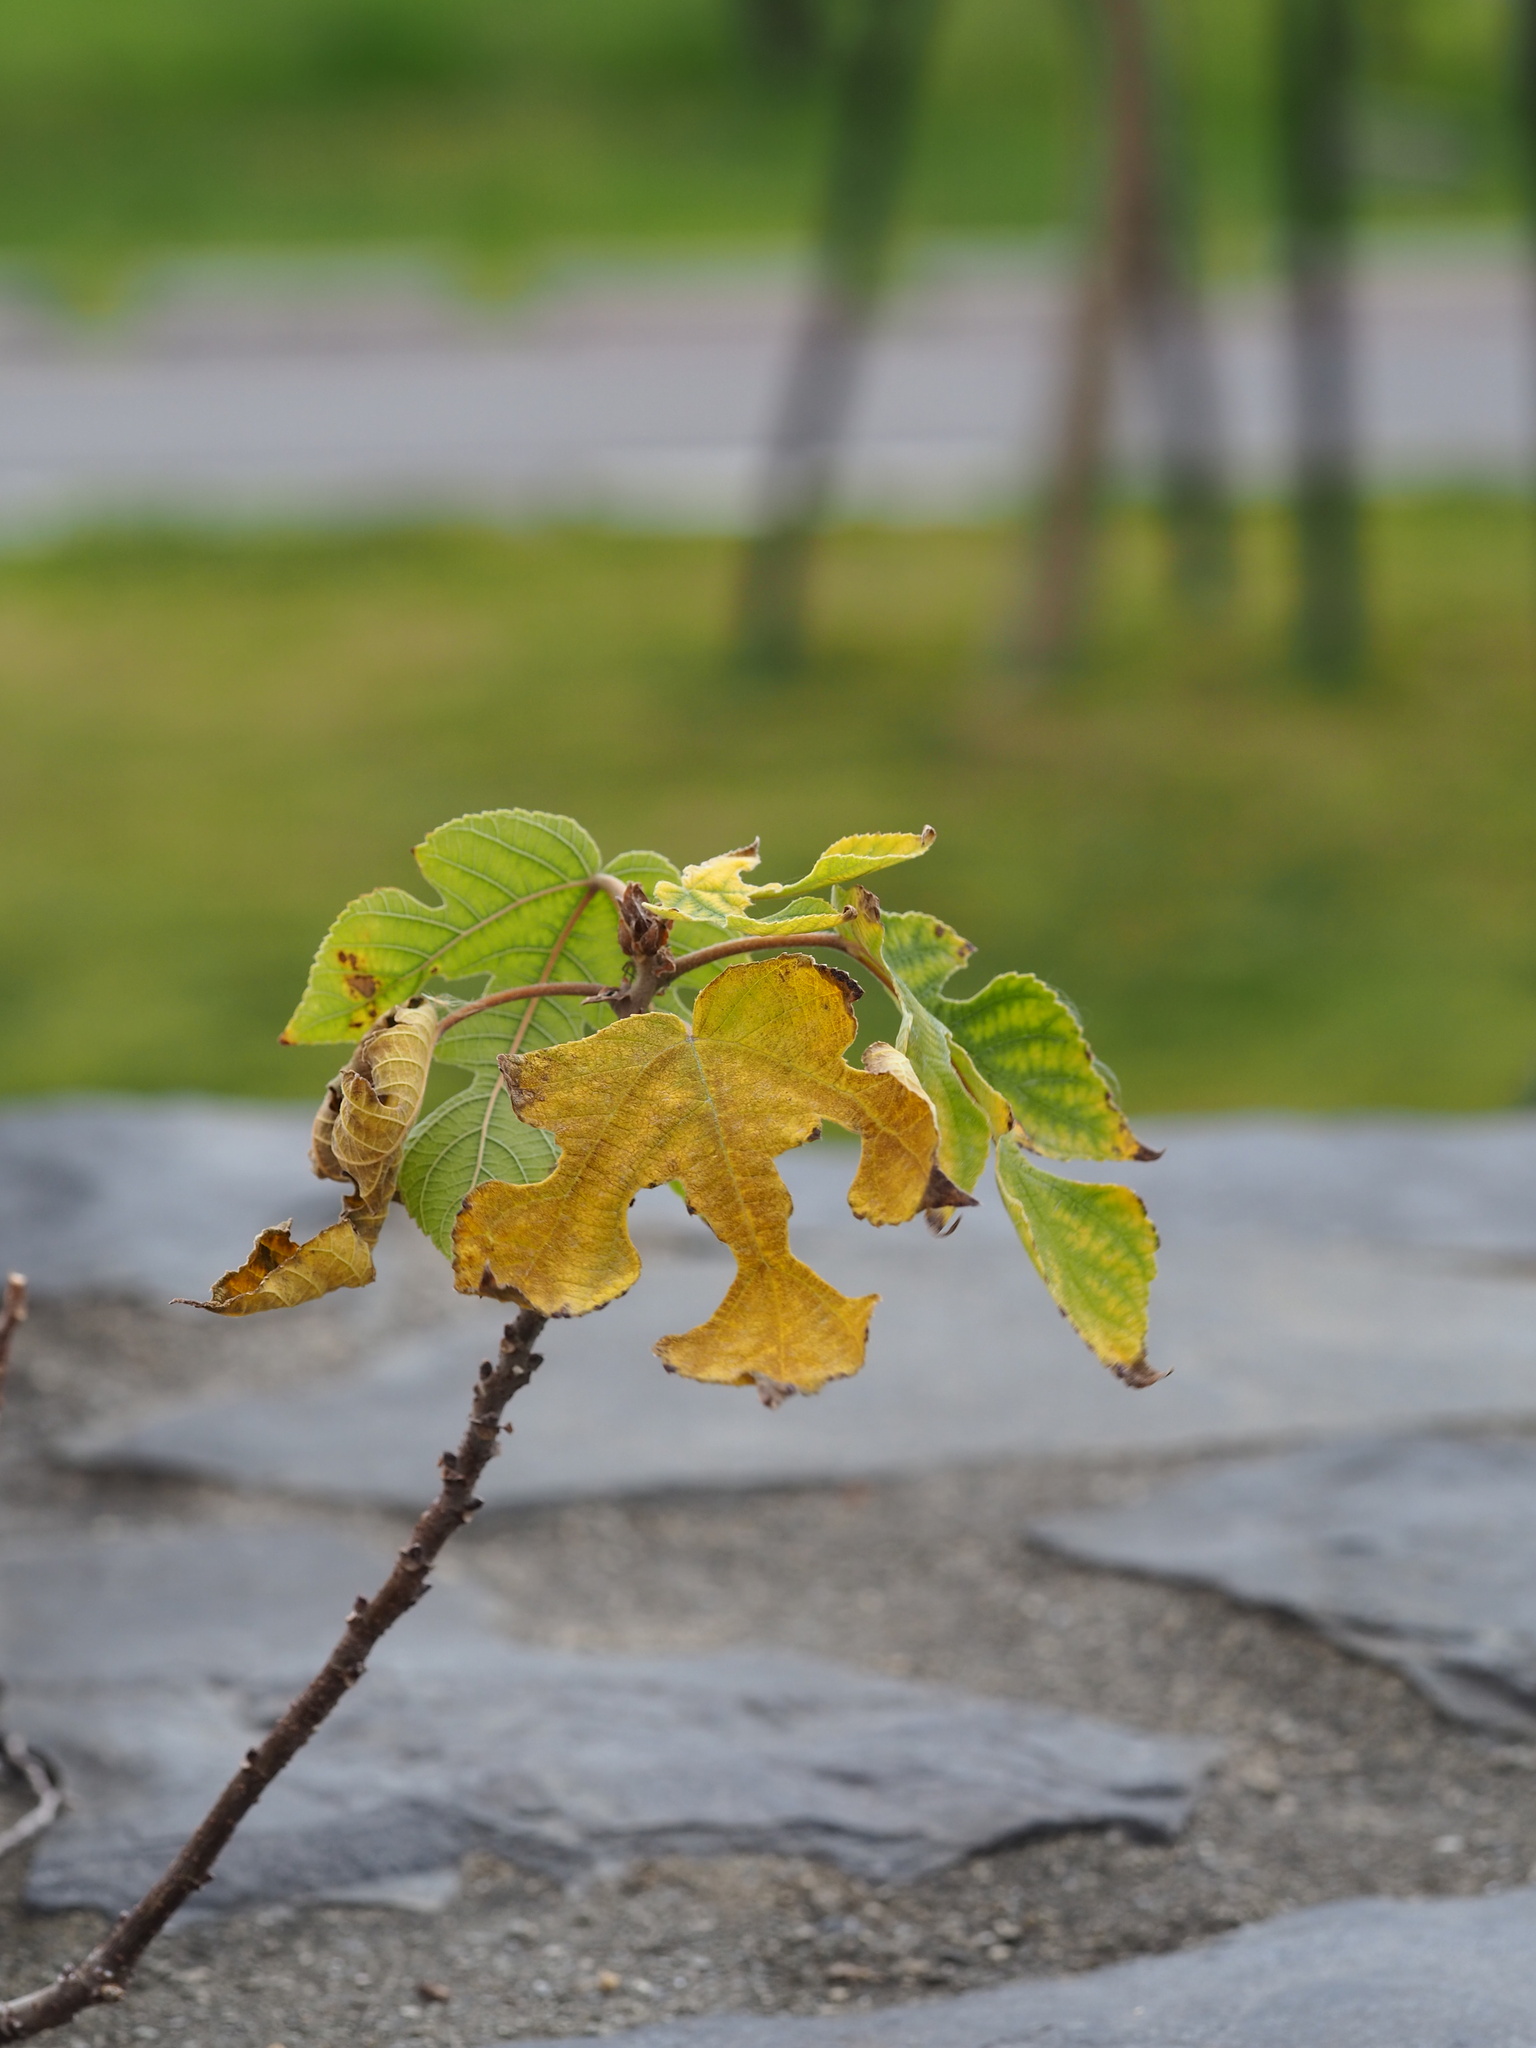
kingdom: Plantae
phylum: Tracheophyta
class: Magnoliopsida
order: Rosales
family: Moraceae
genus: Broussonetia
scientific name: Broussonetia papyrifera
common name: Paper mulberry
